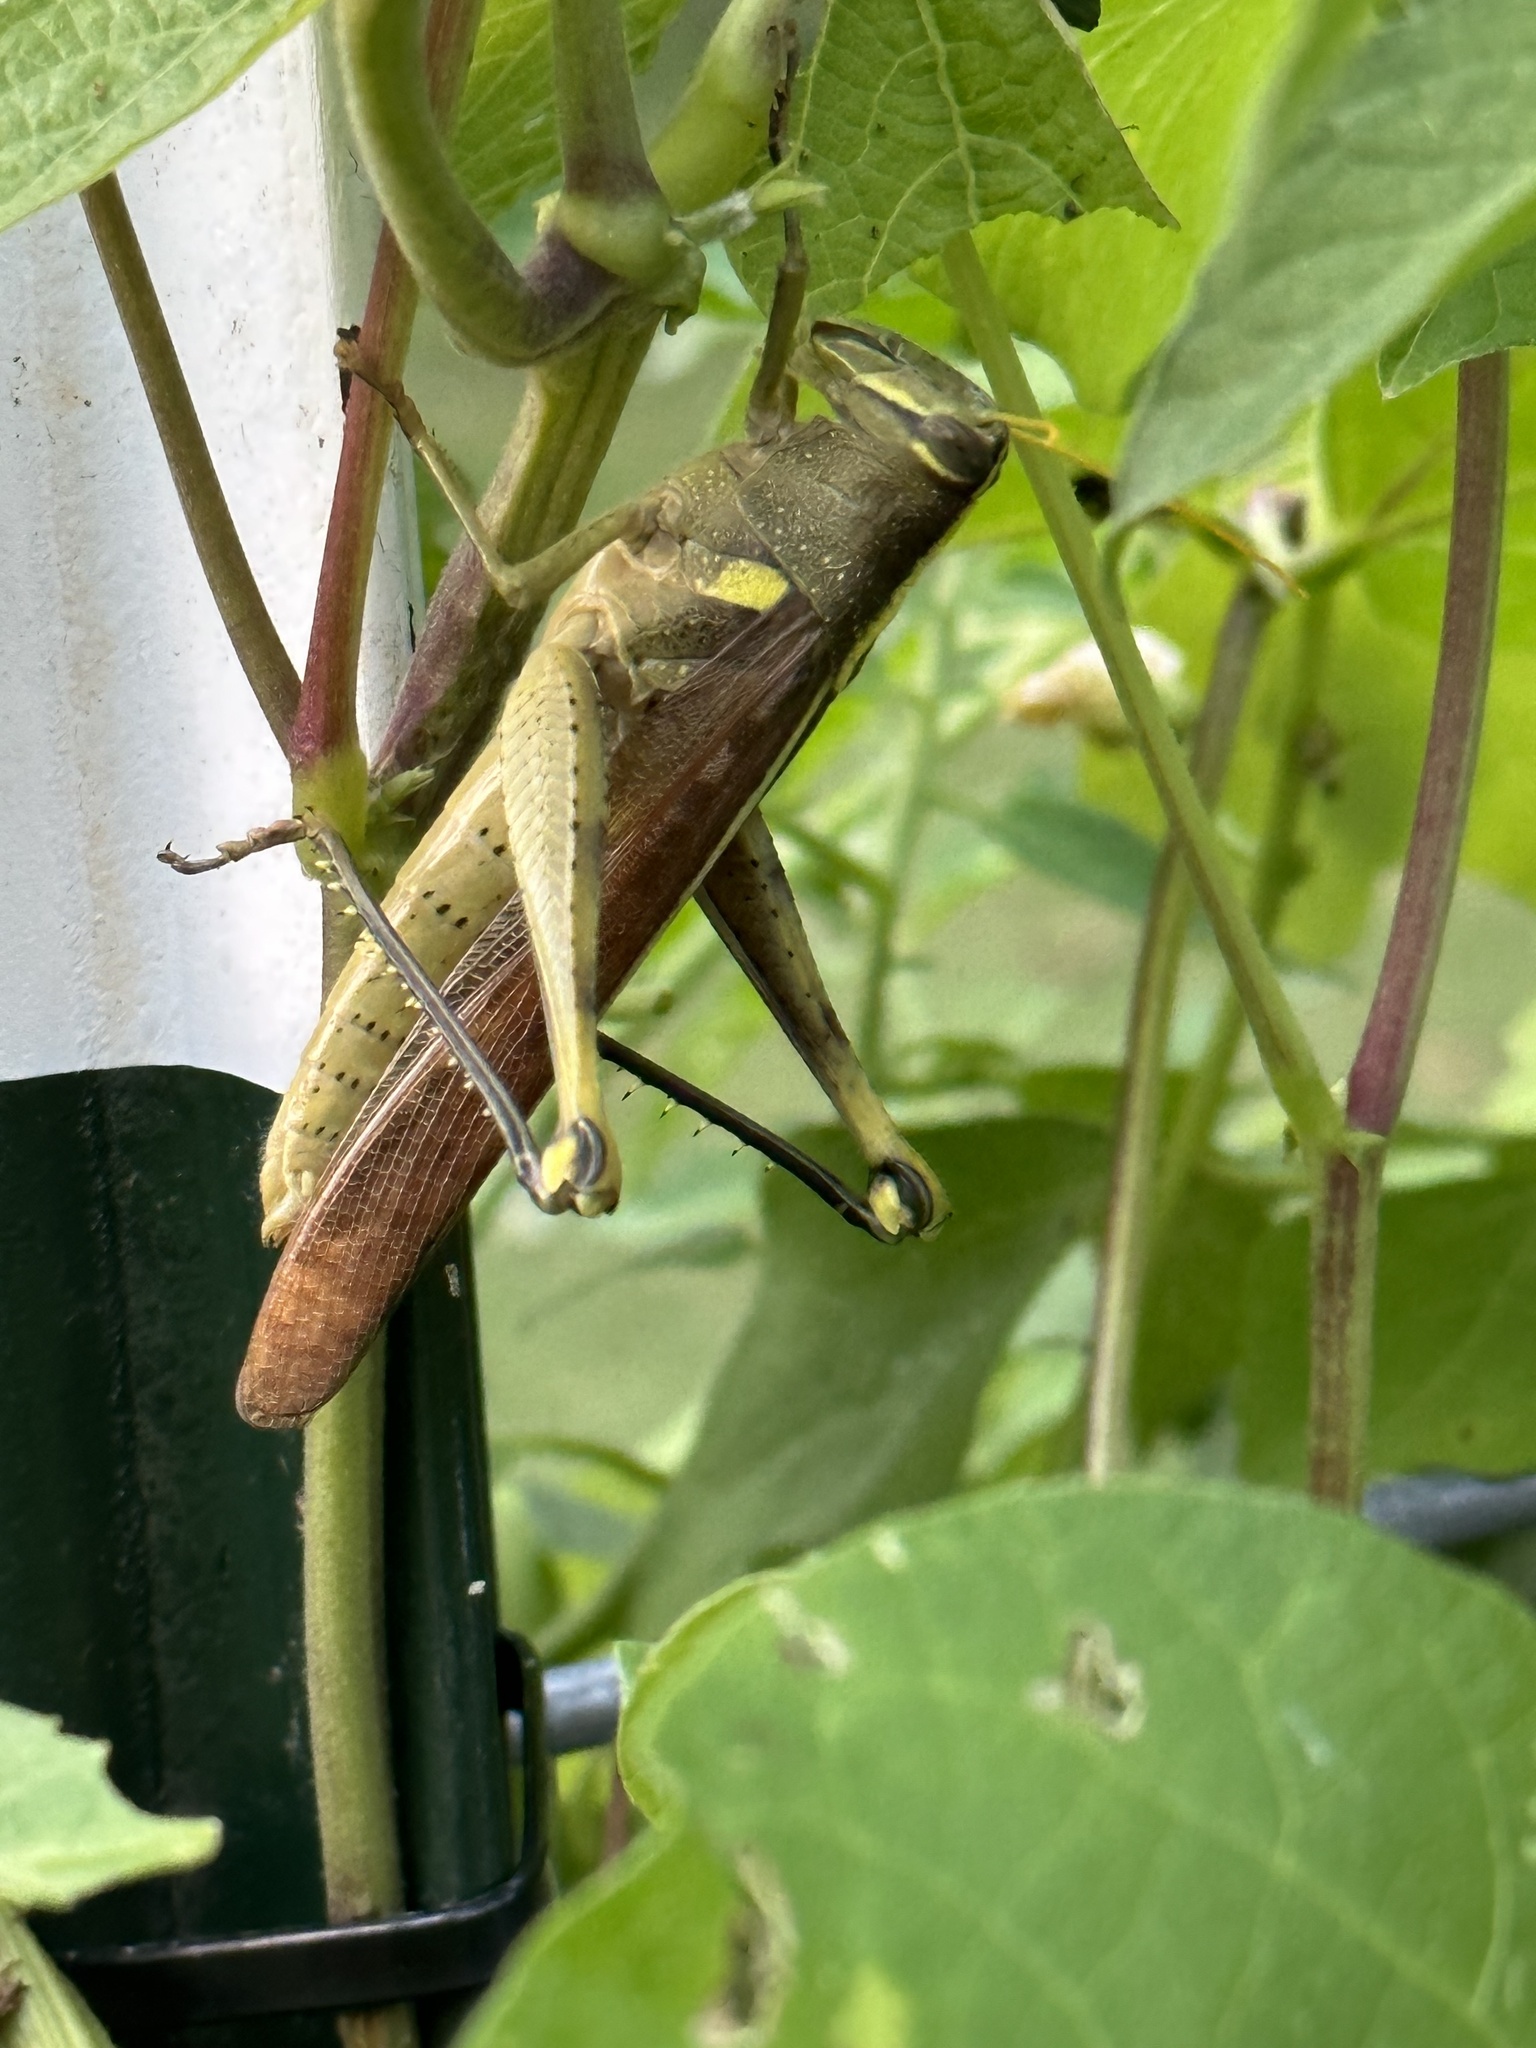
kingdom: Animalia
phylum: Arthropoda
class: Insecta
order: Orthoptera
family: Acrididae
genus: Schistocerca
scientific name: Schistocerca obscura
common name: Obscure bird grasshopper
